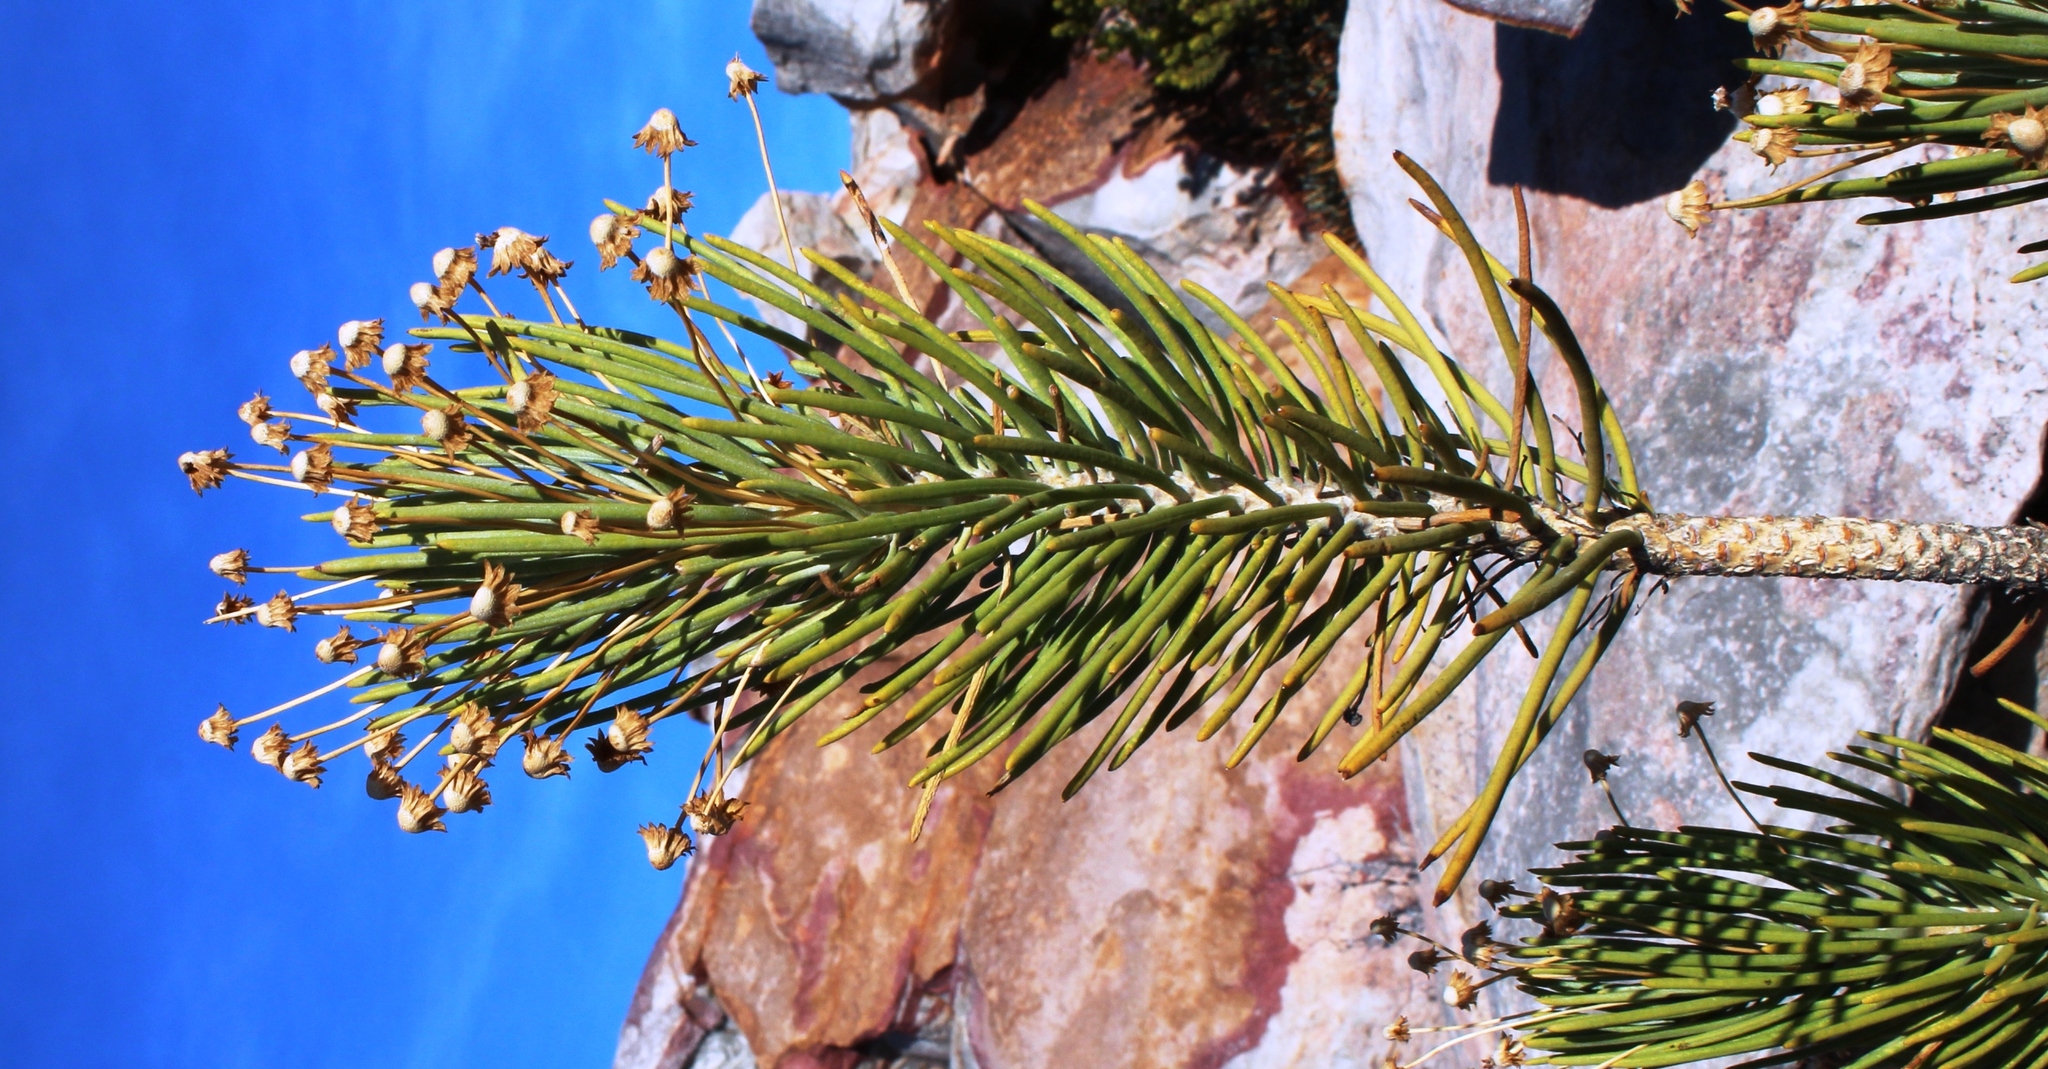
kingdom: Plantae
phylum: Tracheophyta
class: Magnoliopsida
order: Asterales
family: Asteraceae
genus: Euryops
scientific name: Euryops rehmannii
